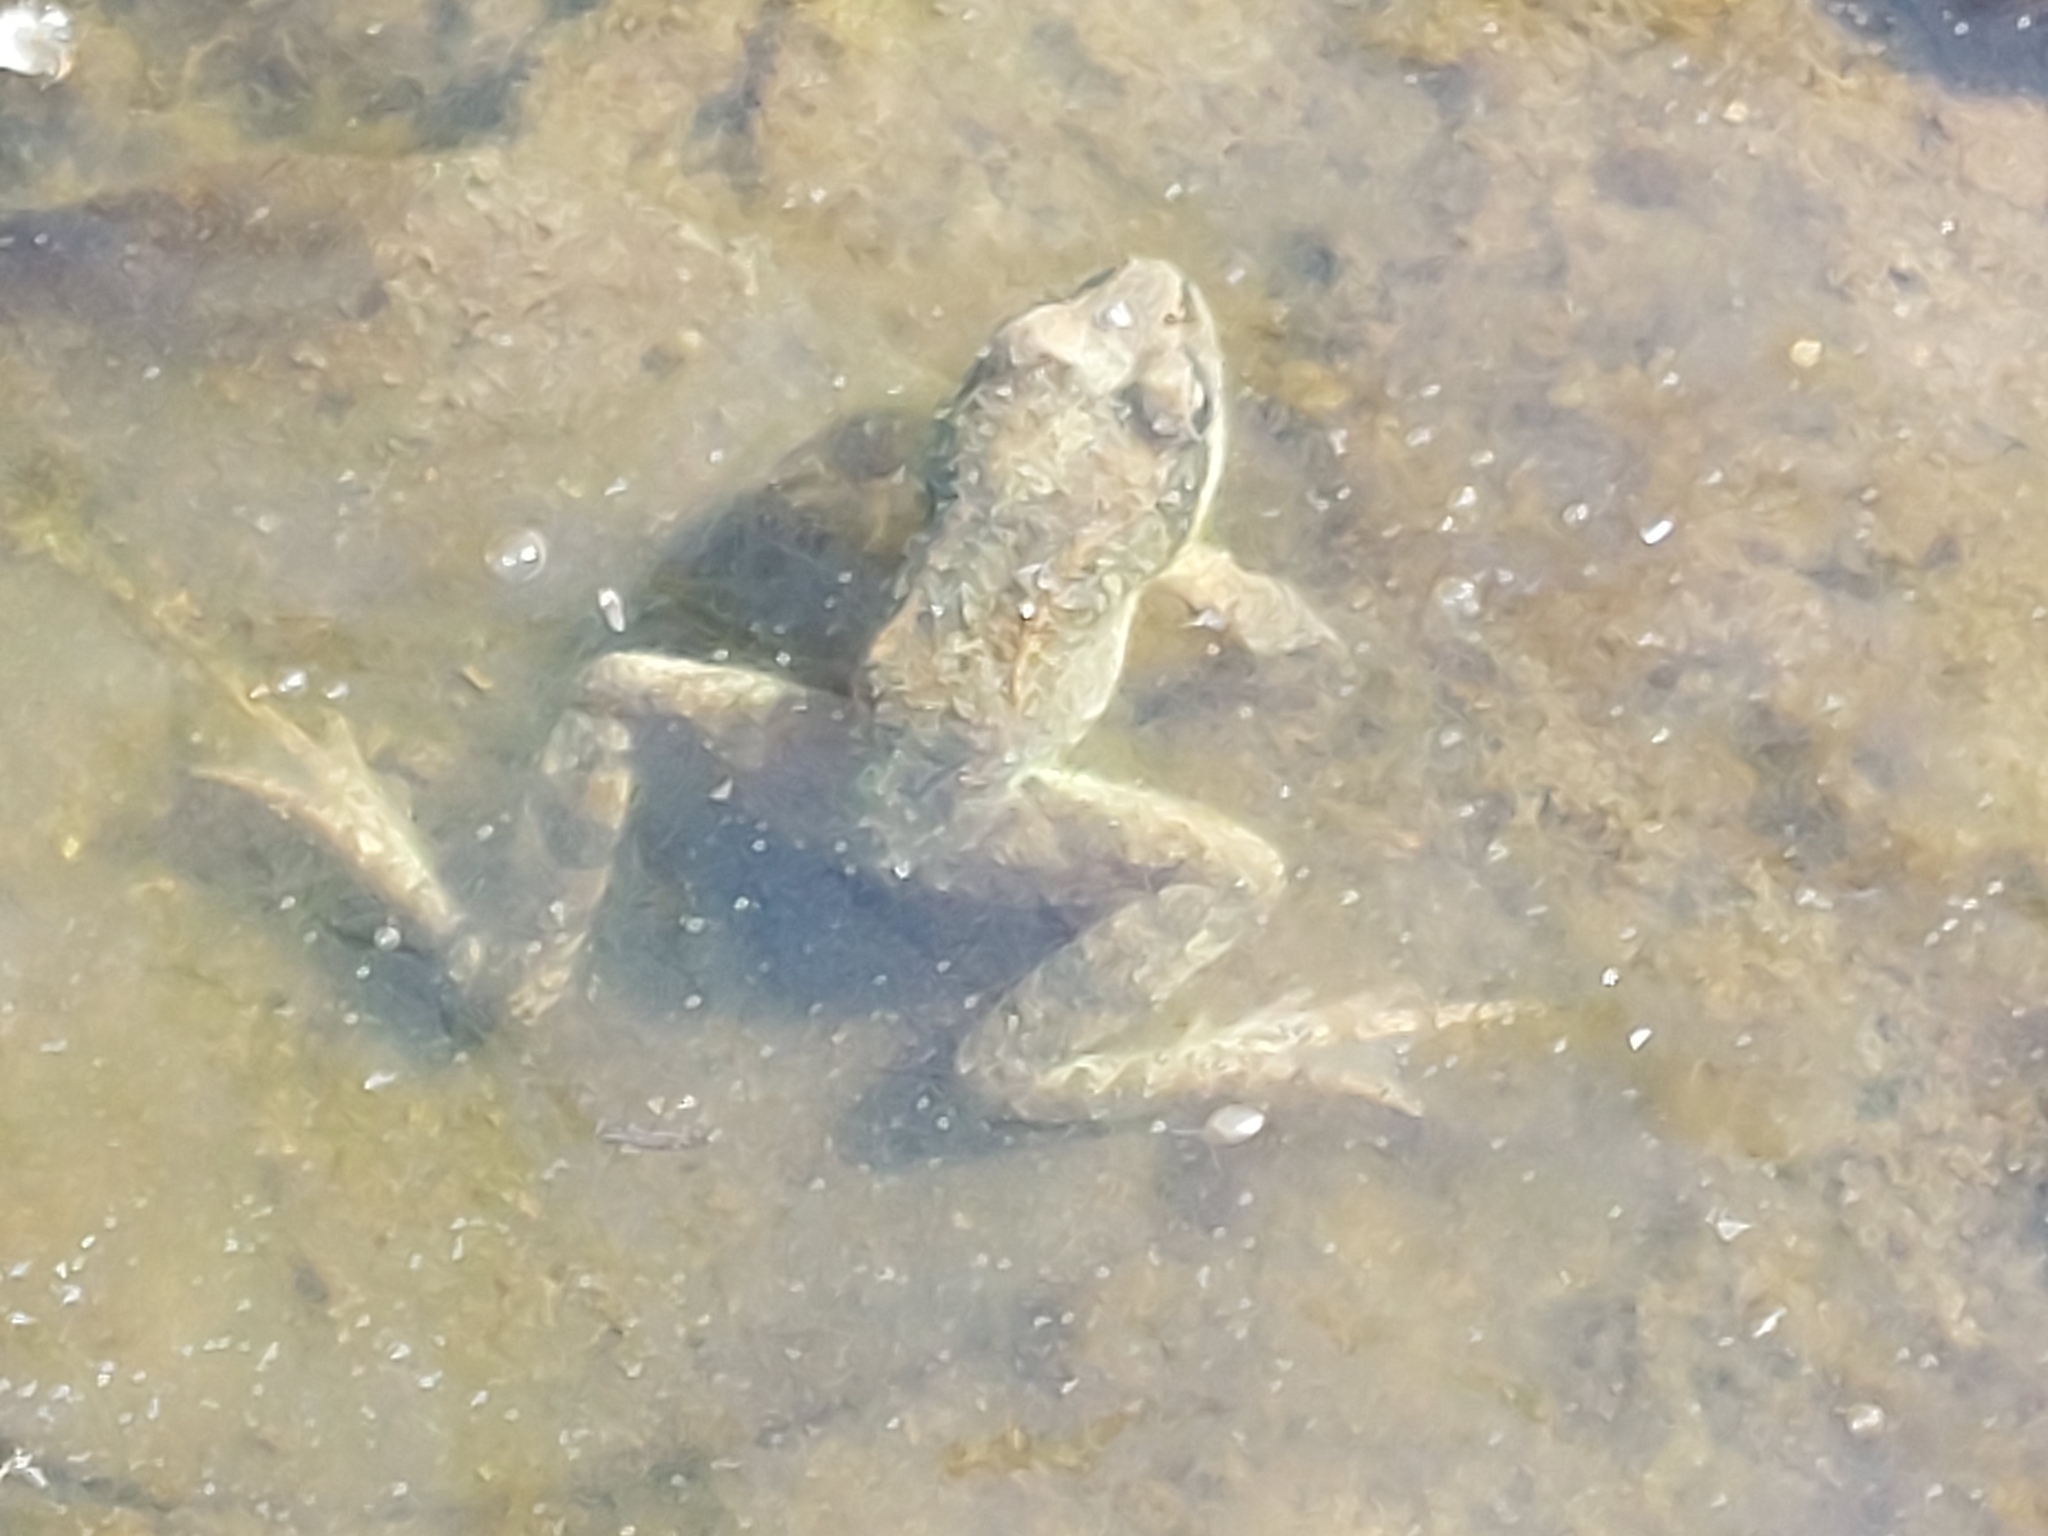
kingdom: Animalia
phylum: Chordata
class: Amphibia
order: Anura
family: Ranidae
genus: Rana
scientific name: Rana temporaria
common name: Common frog
